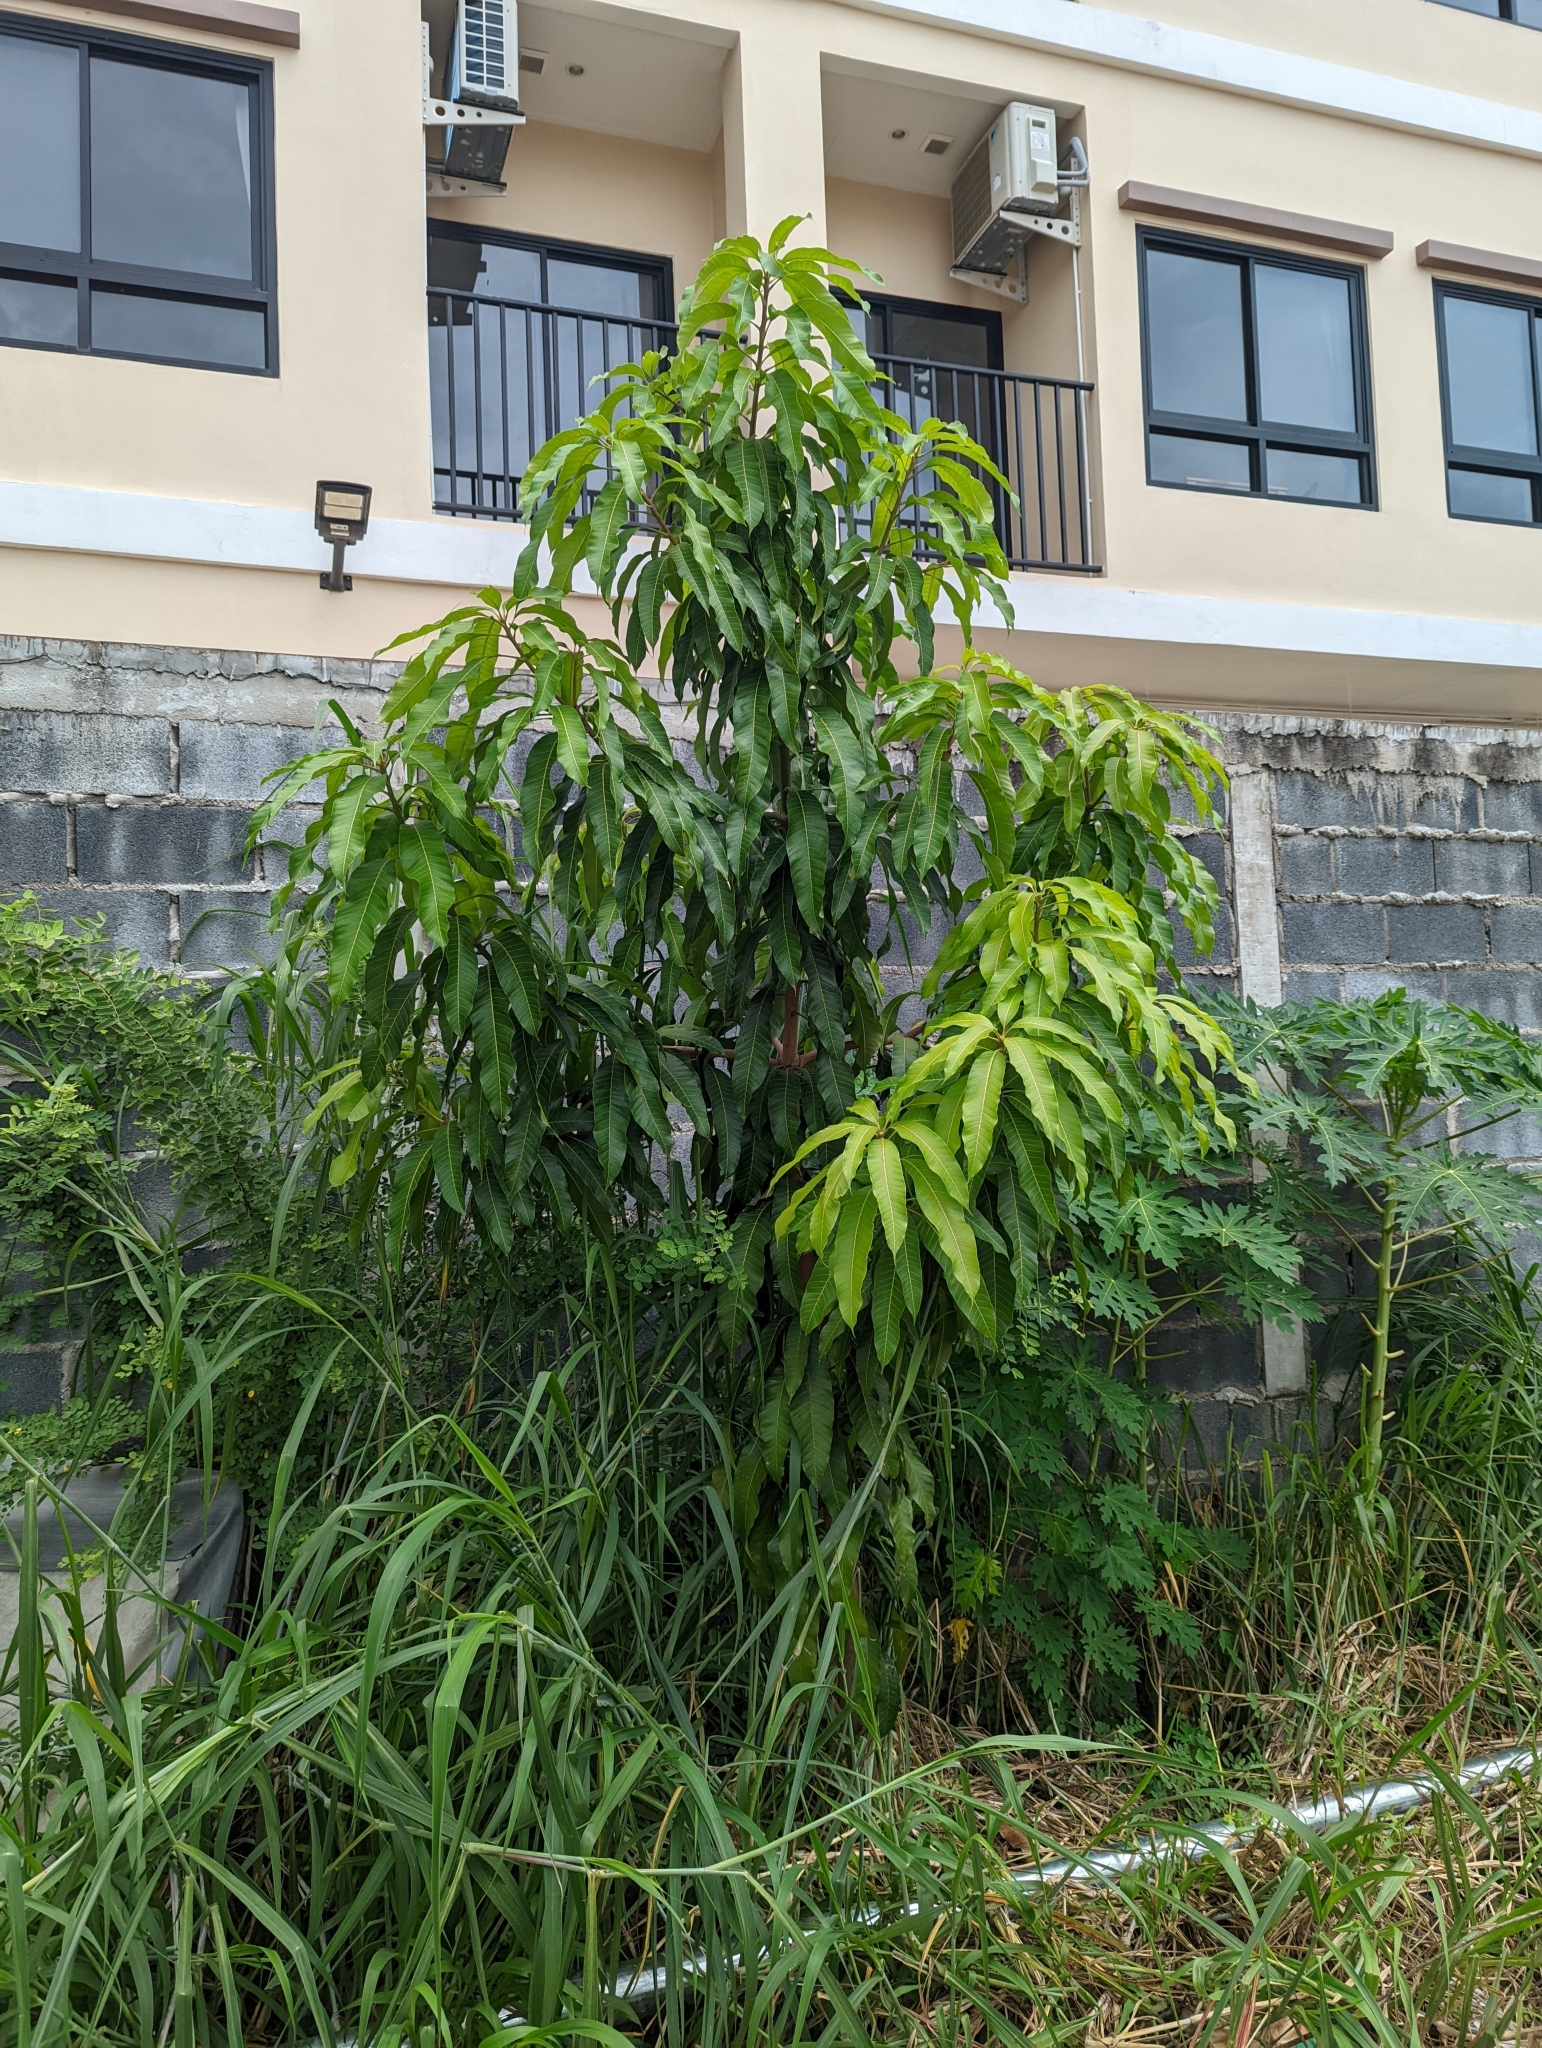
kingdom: Plantae
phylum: Tracheophyta
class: Magnoliopsida
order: Sapindales
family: Anacardiaceae
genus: Mangifera
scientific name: Mangifera indica
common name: Mango
